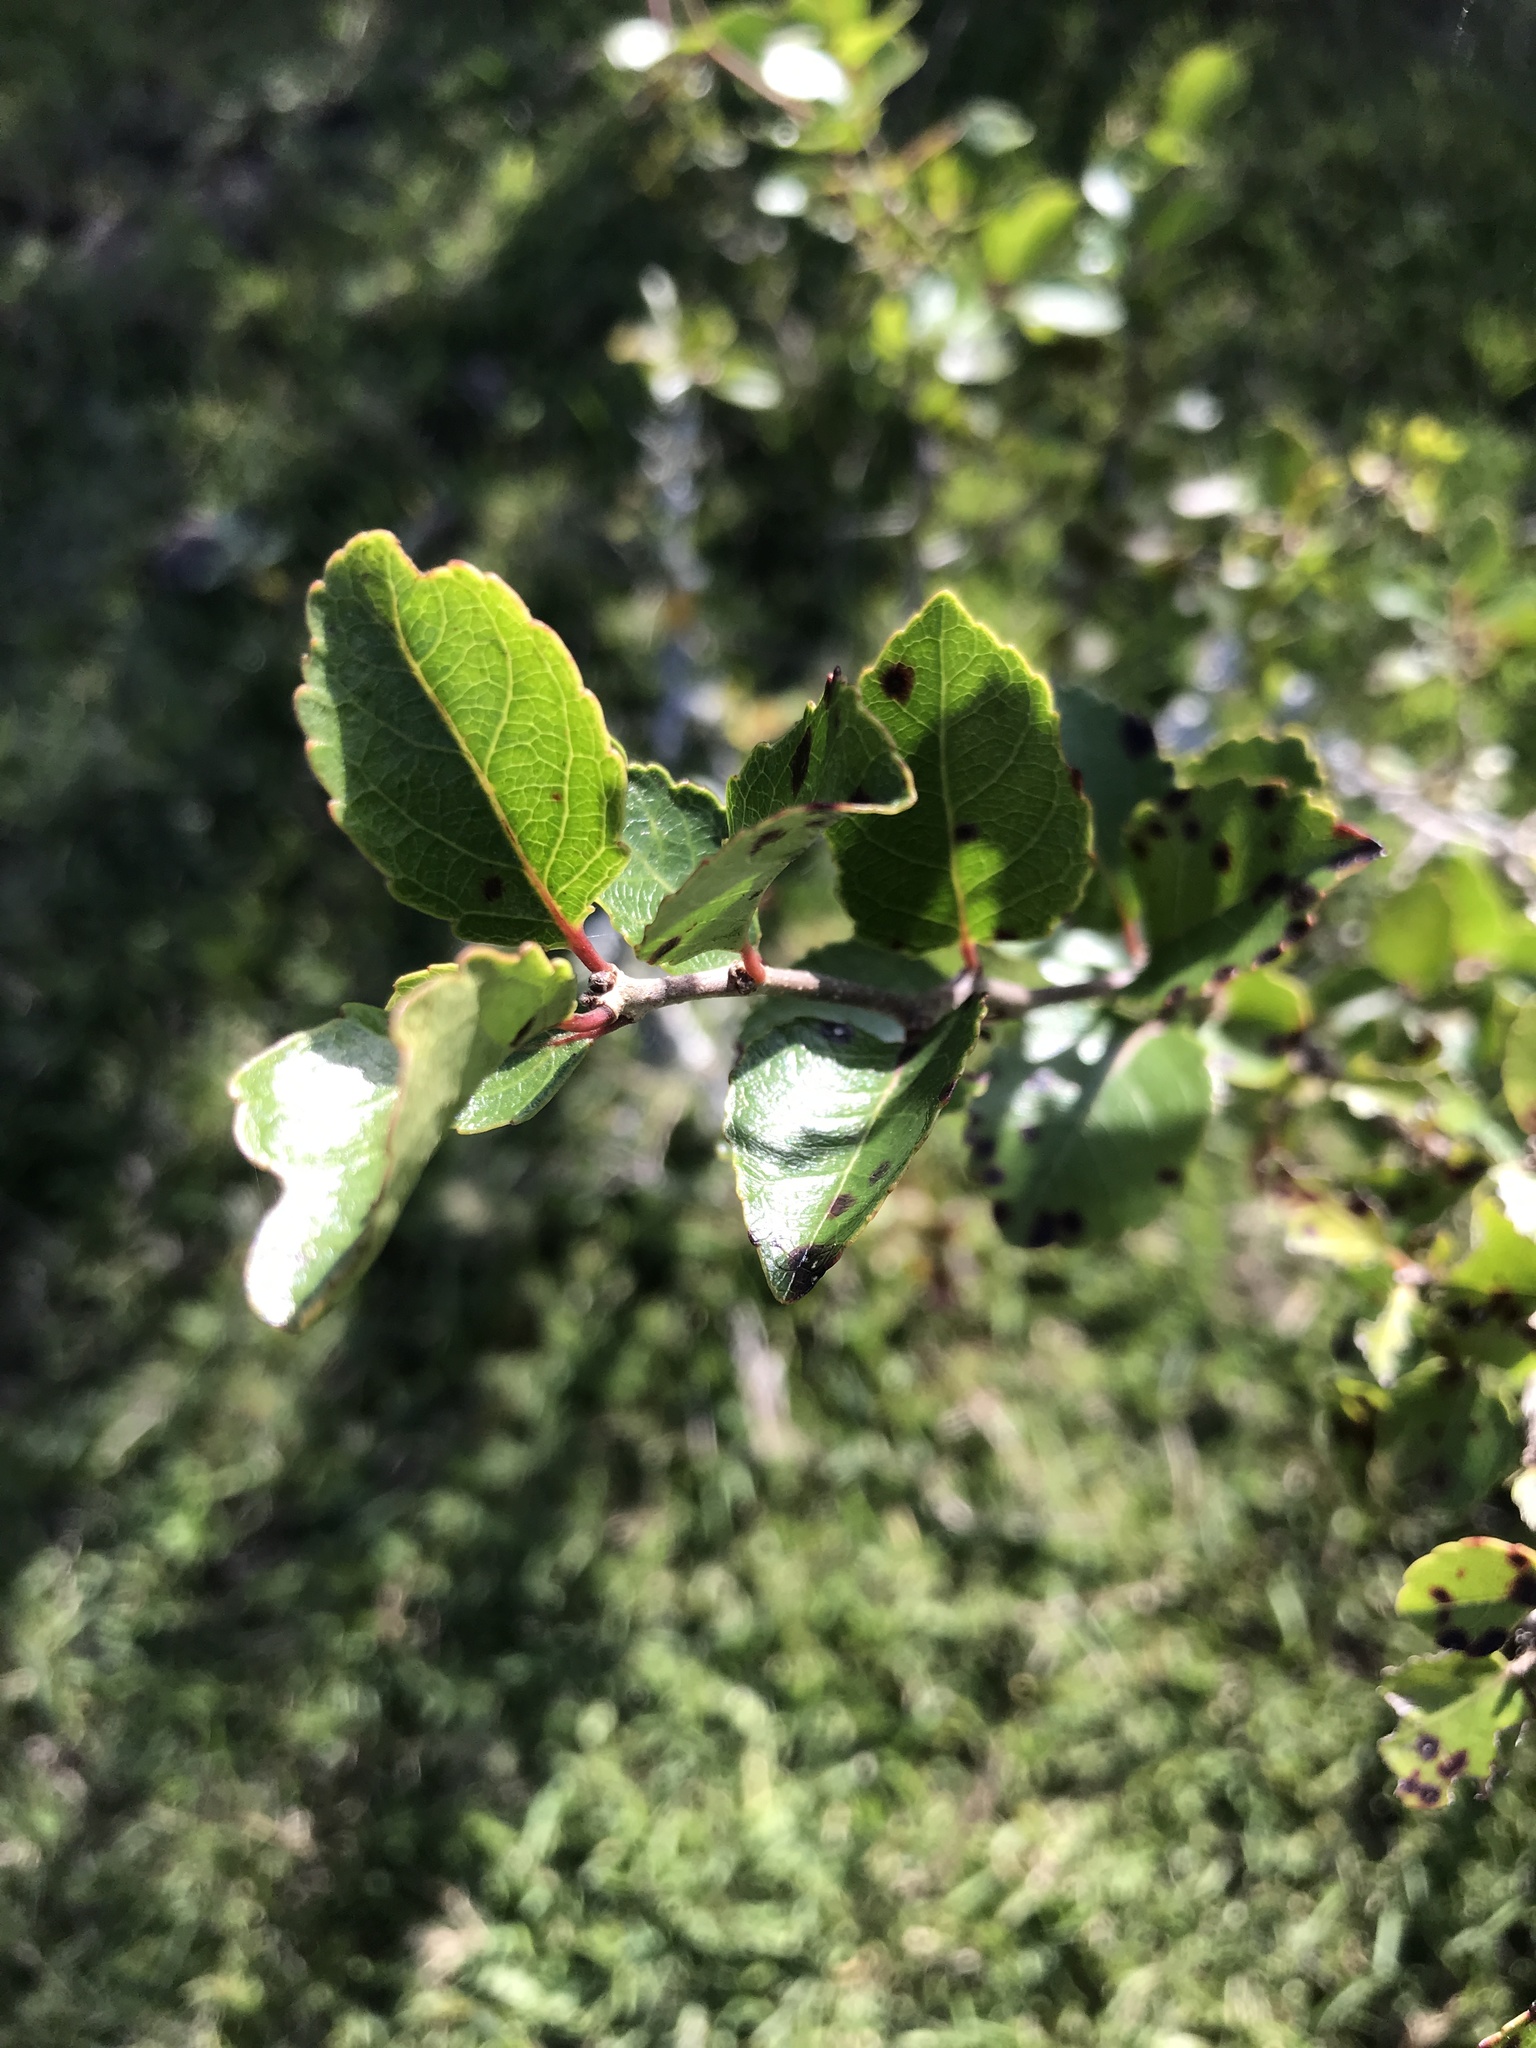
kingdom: Plantae
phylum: Tracheophyta
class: Magnoliopsida
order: Malpighiales
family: Salicaceae
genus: Xylosma
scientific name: Xylosma tweediana
